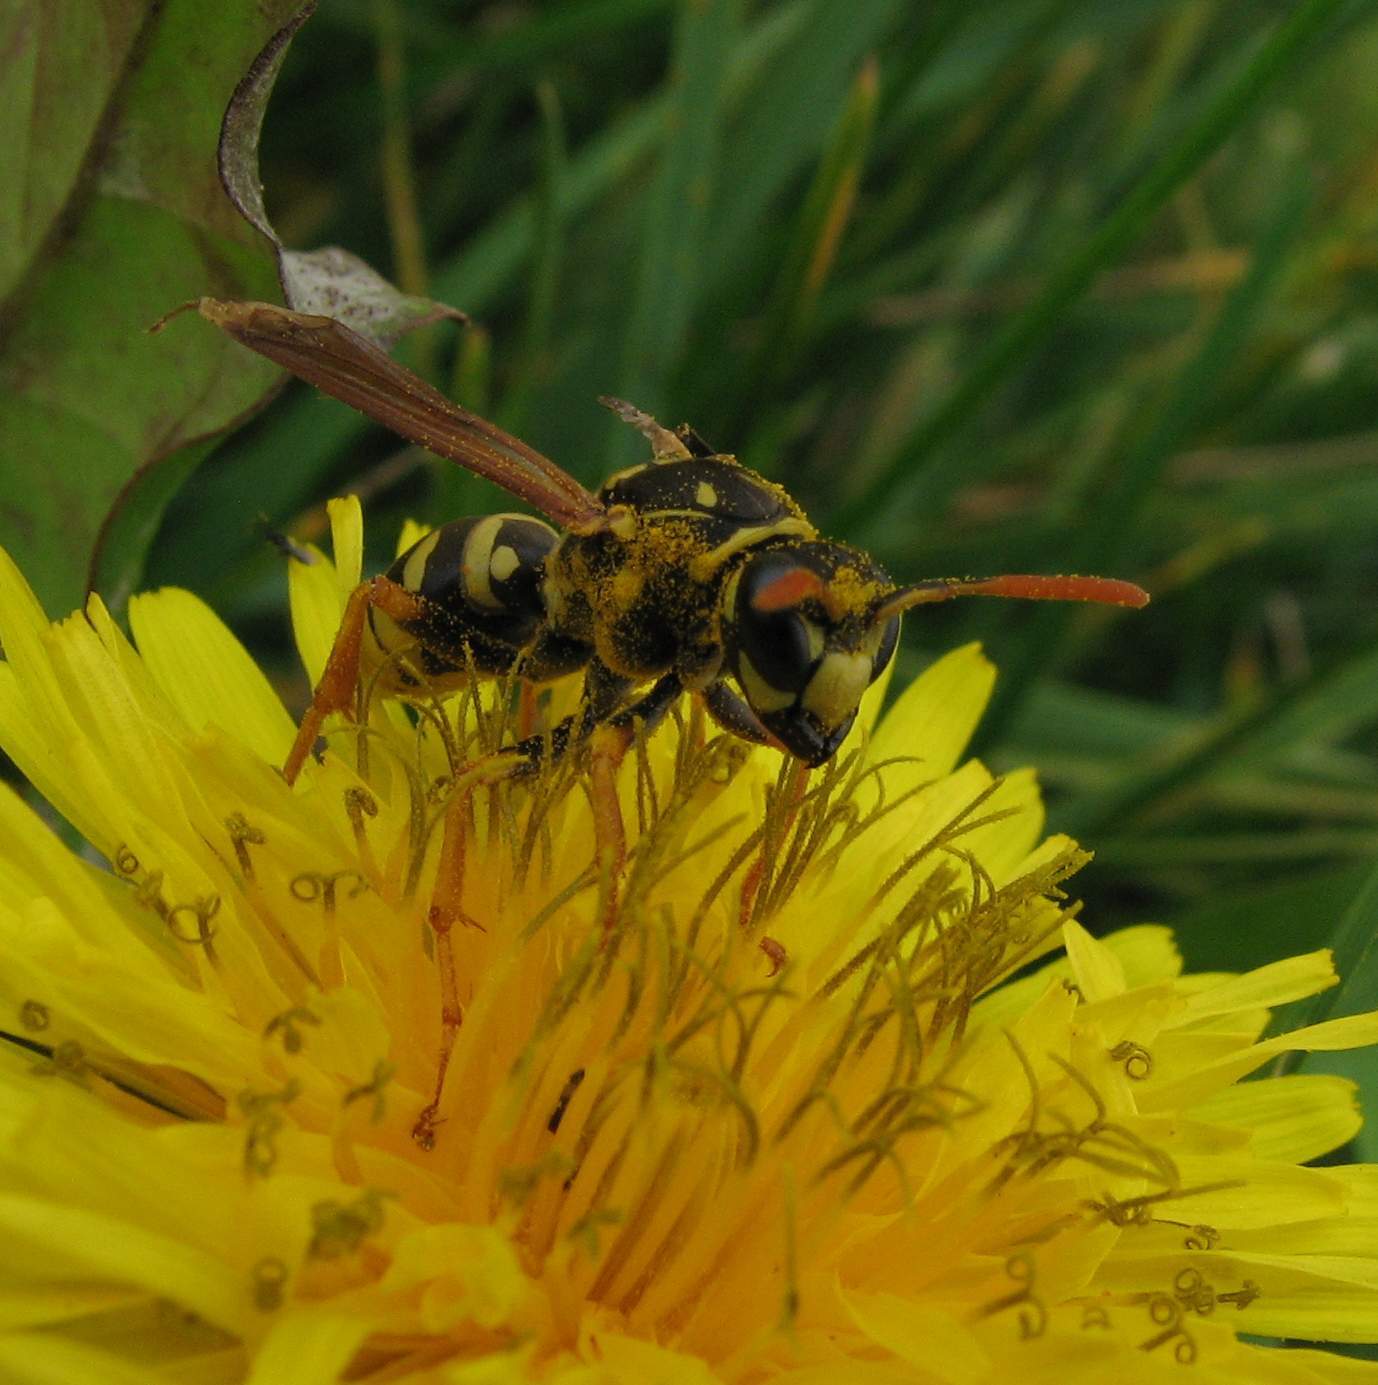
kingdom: Animalia
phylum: Arthropoda
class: Insecta
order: Hymenoptera
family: Eumenidae
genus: Polistes
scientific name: Polistes dominula
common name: Paper wasp
